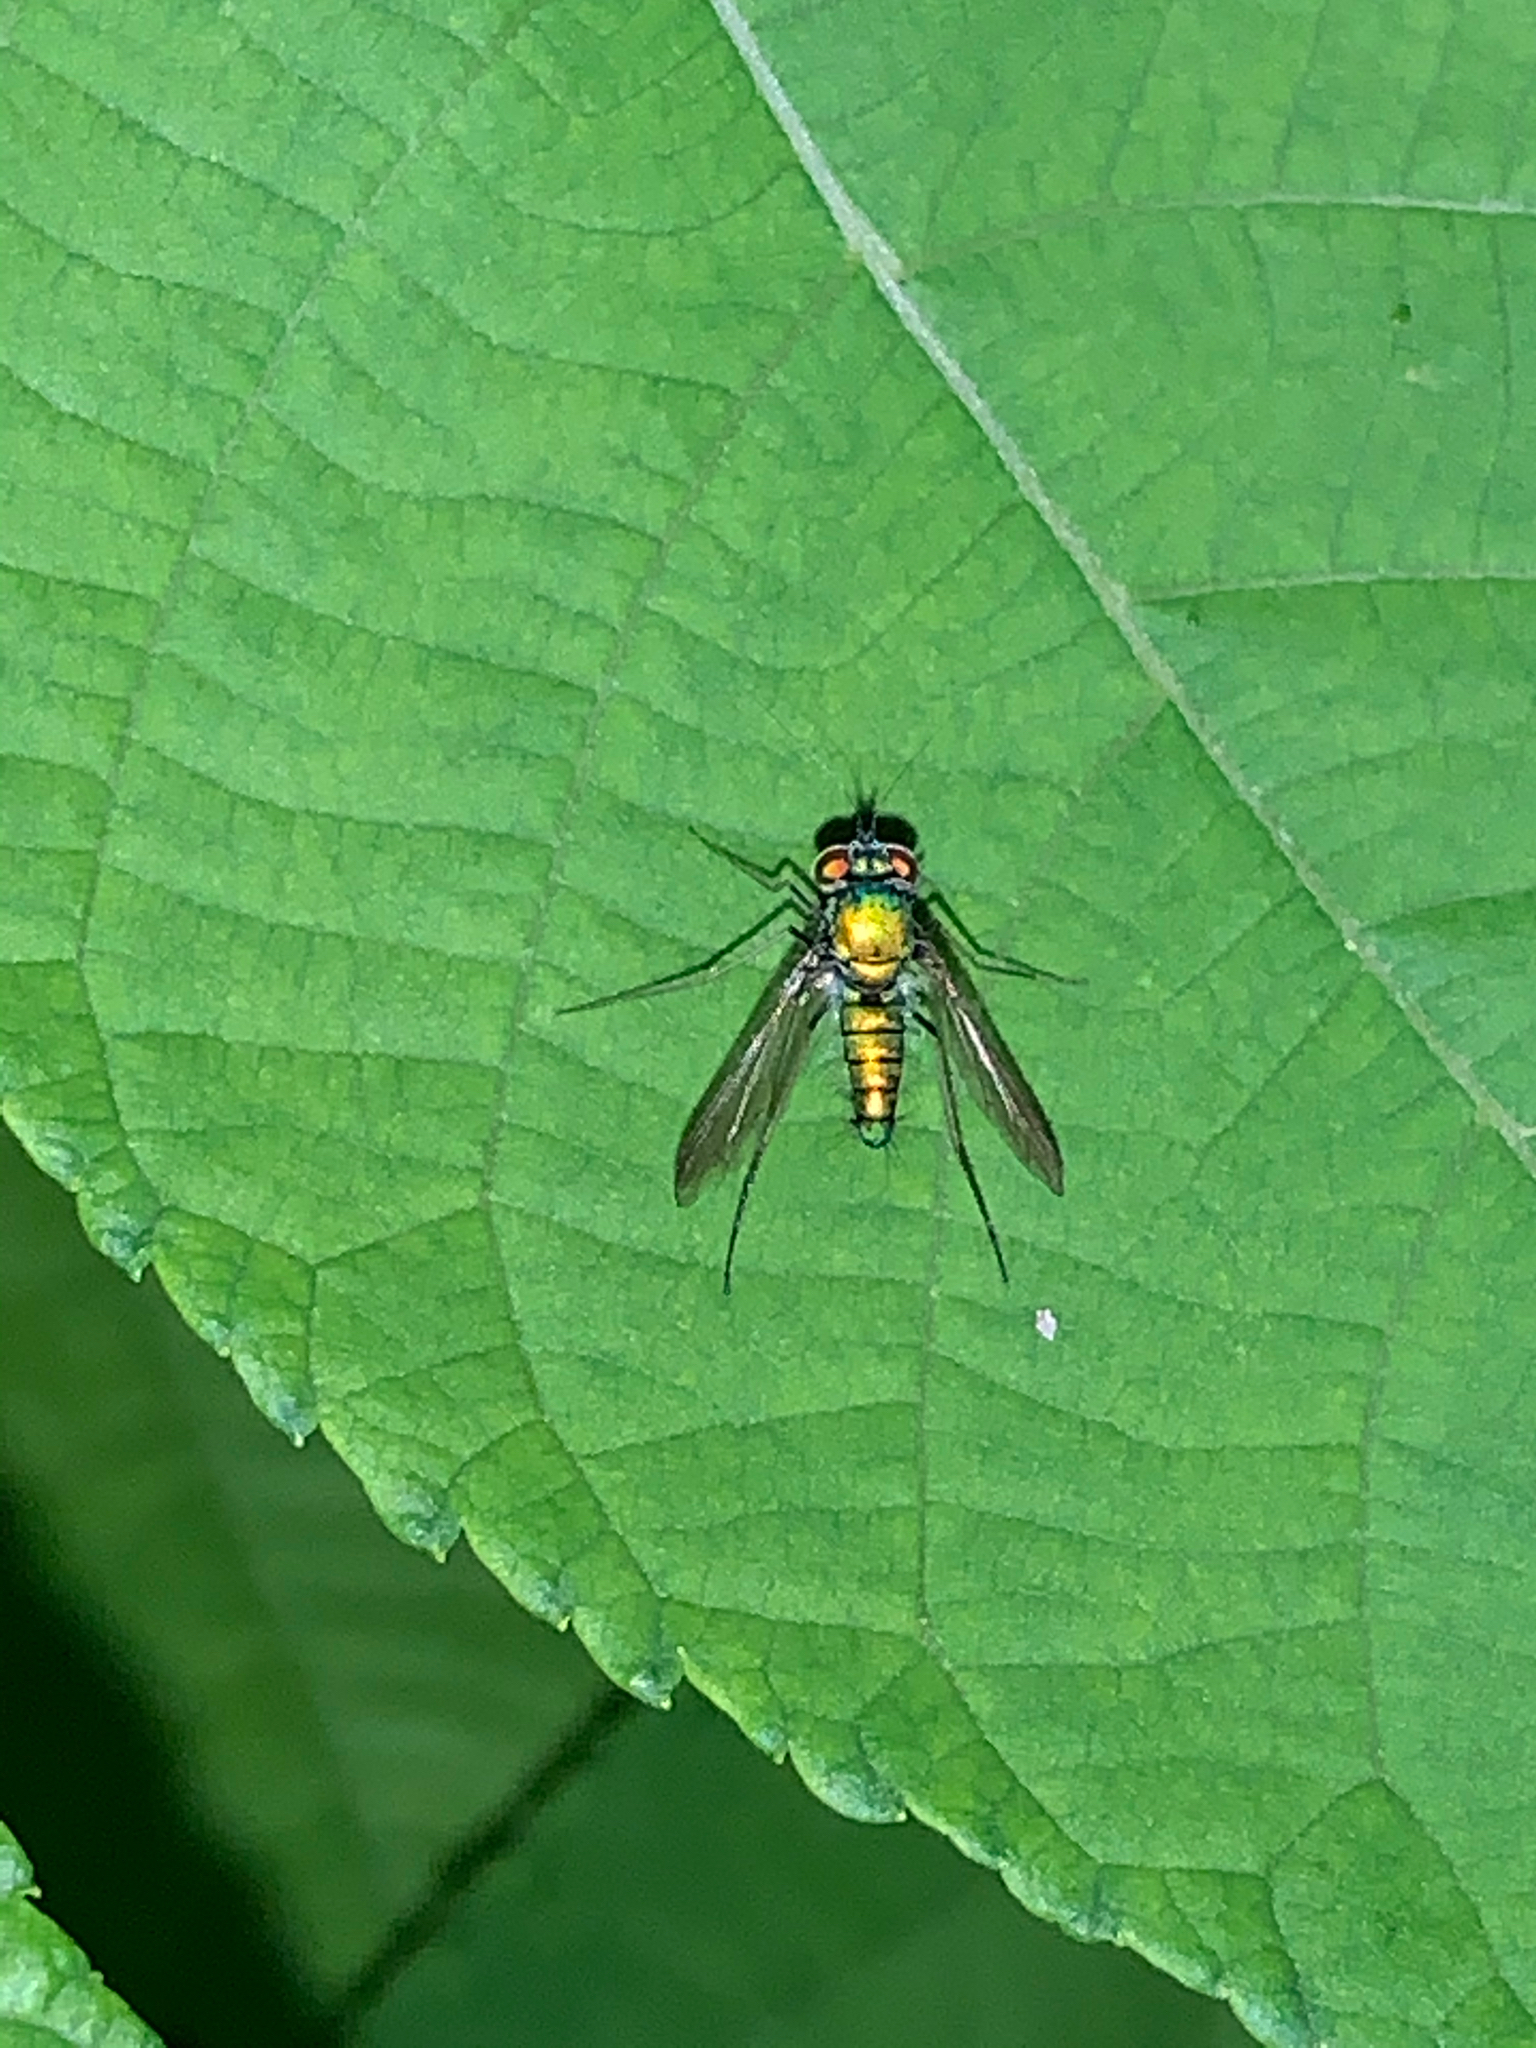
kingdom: Animalia
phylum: Arthropoda
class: Insecta
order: Diptera
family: Dolichopodidae
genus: Condylostylus
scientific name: Condylostylus comatus
